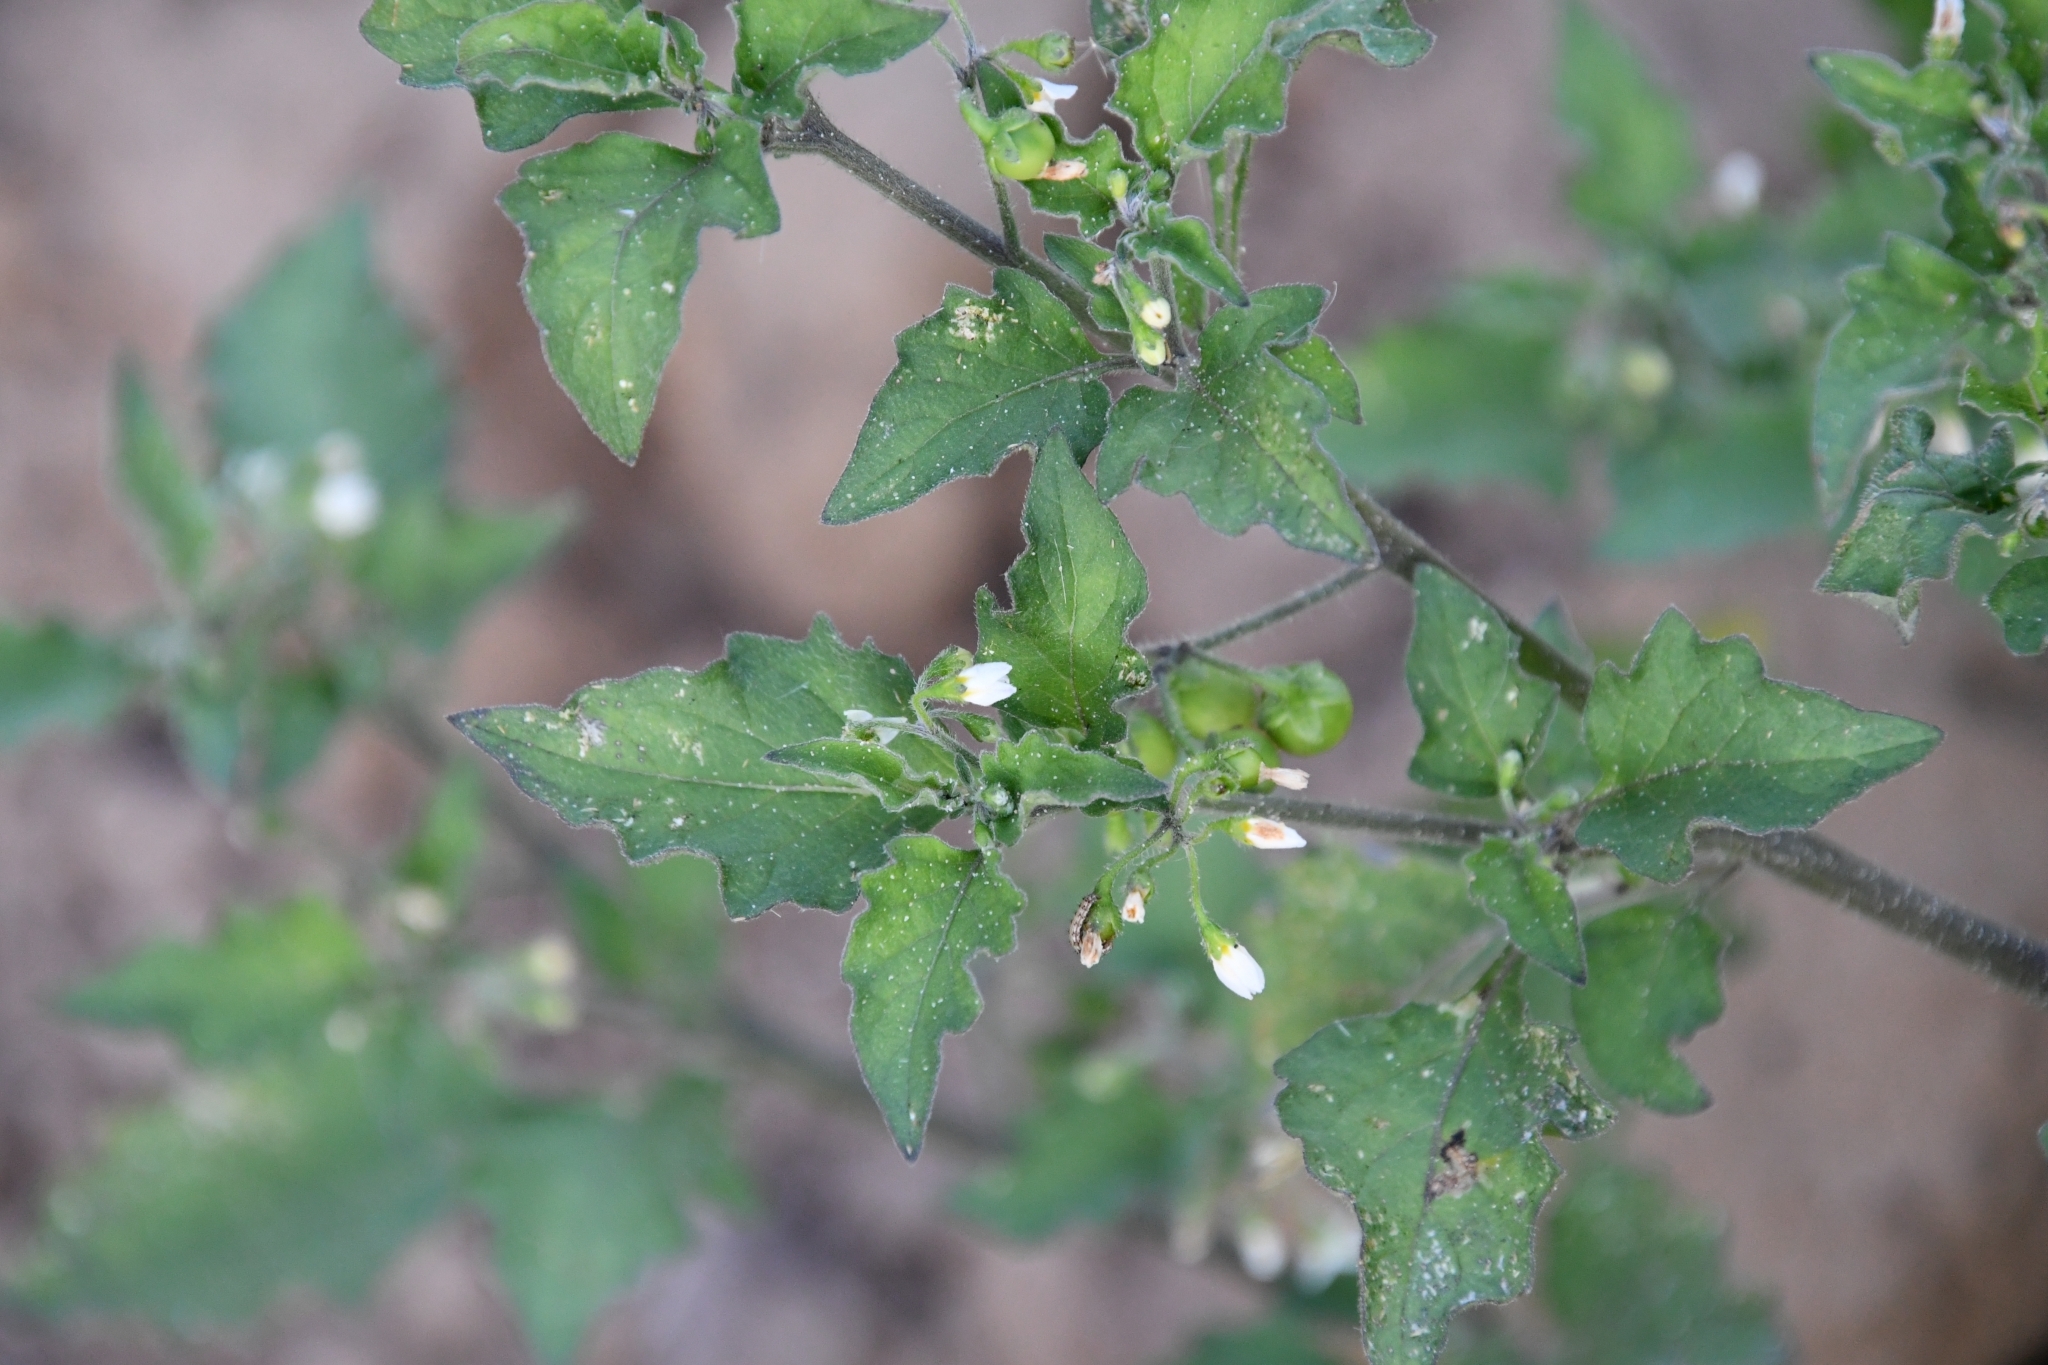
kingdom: Plantae
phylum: Tracheophyta
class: Magnoliopsida
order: Solanales
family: Solanaceae
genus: Solanum
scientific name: Solanum nigrum
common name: Black nightshade
